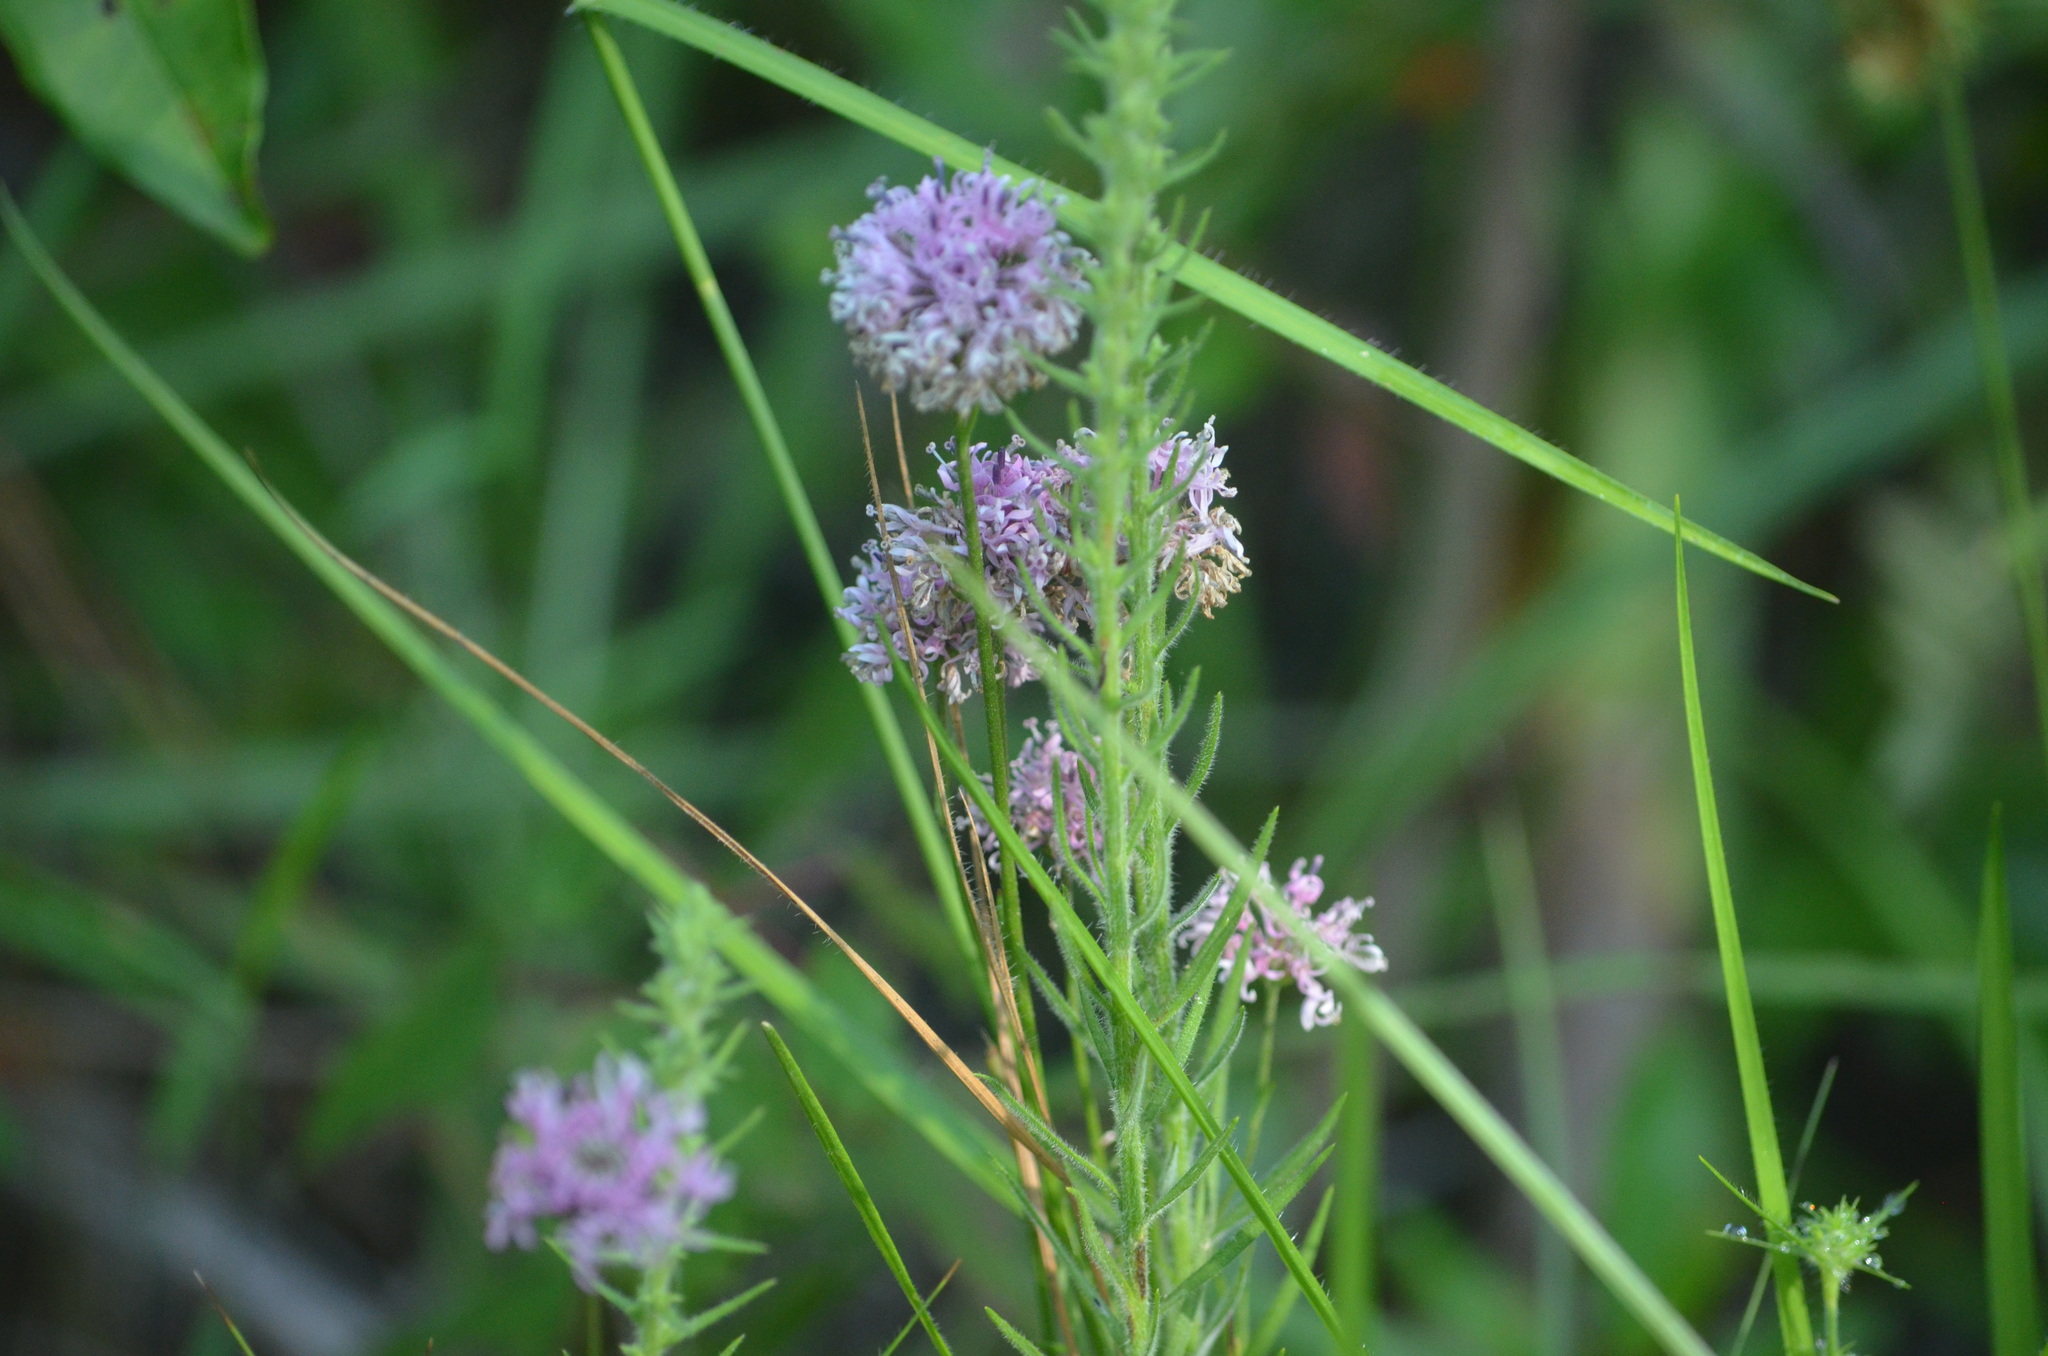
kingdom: Plantae
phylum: Tracheophyta
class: Magnoliopsida
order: Asterales
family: Asteraceae
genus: Marshallia
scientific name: Marshallia graminifolia
